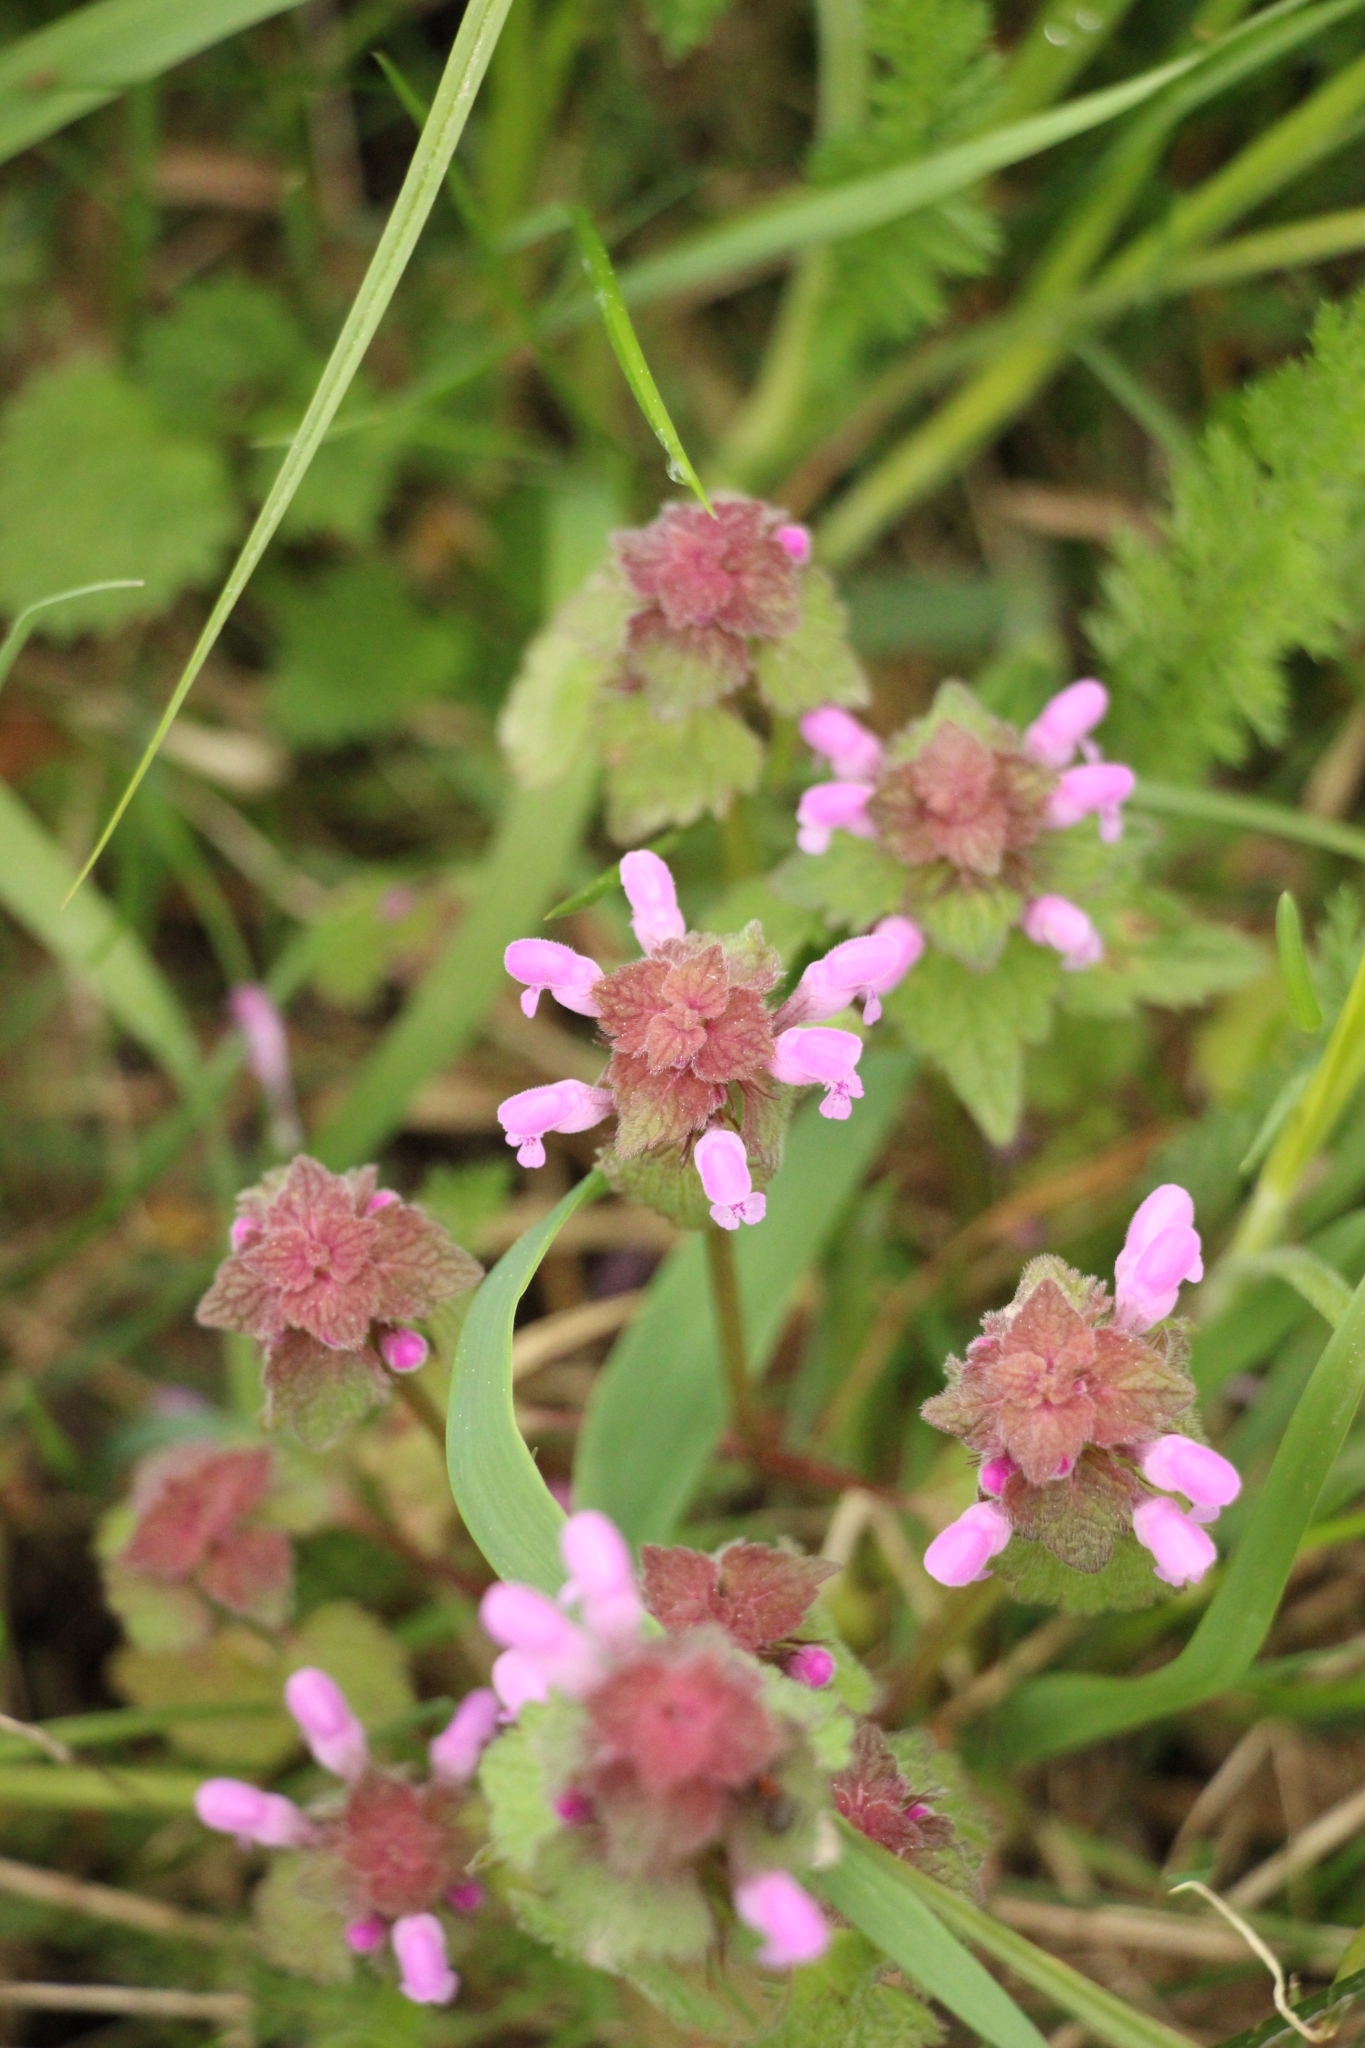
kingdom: Plantae
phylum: Tracheophyta
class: Magnoliopsida
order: Lamiales
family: Lamiaceae
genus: Lamium
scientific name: Lamium purpureum
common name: Red dead-nettle
